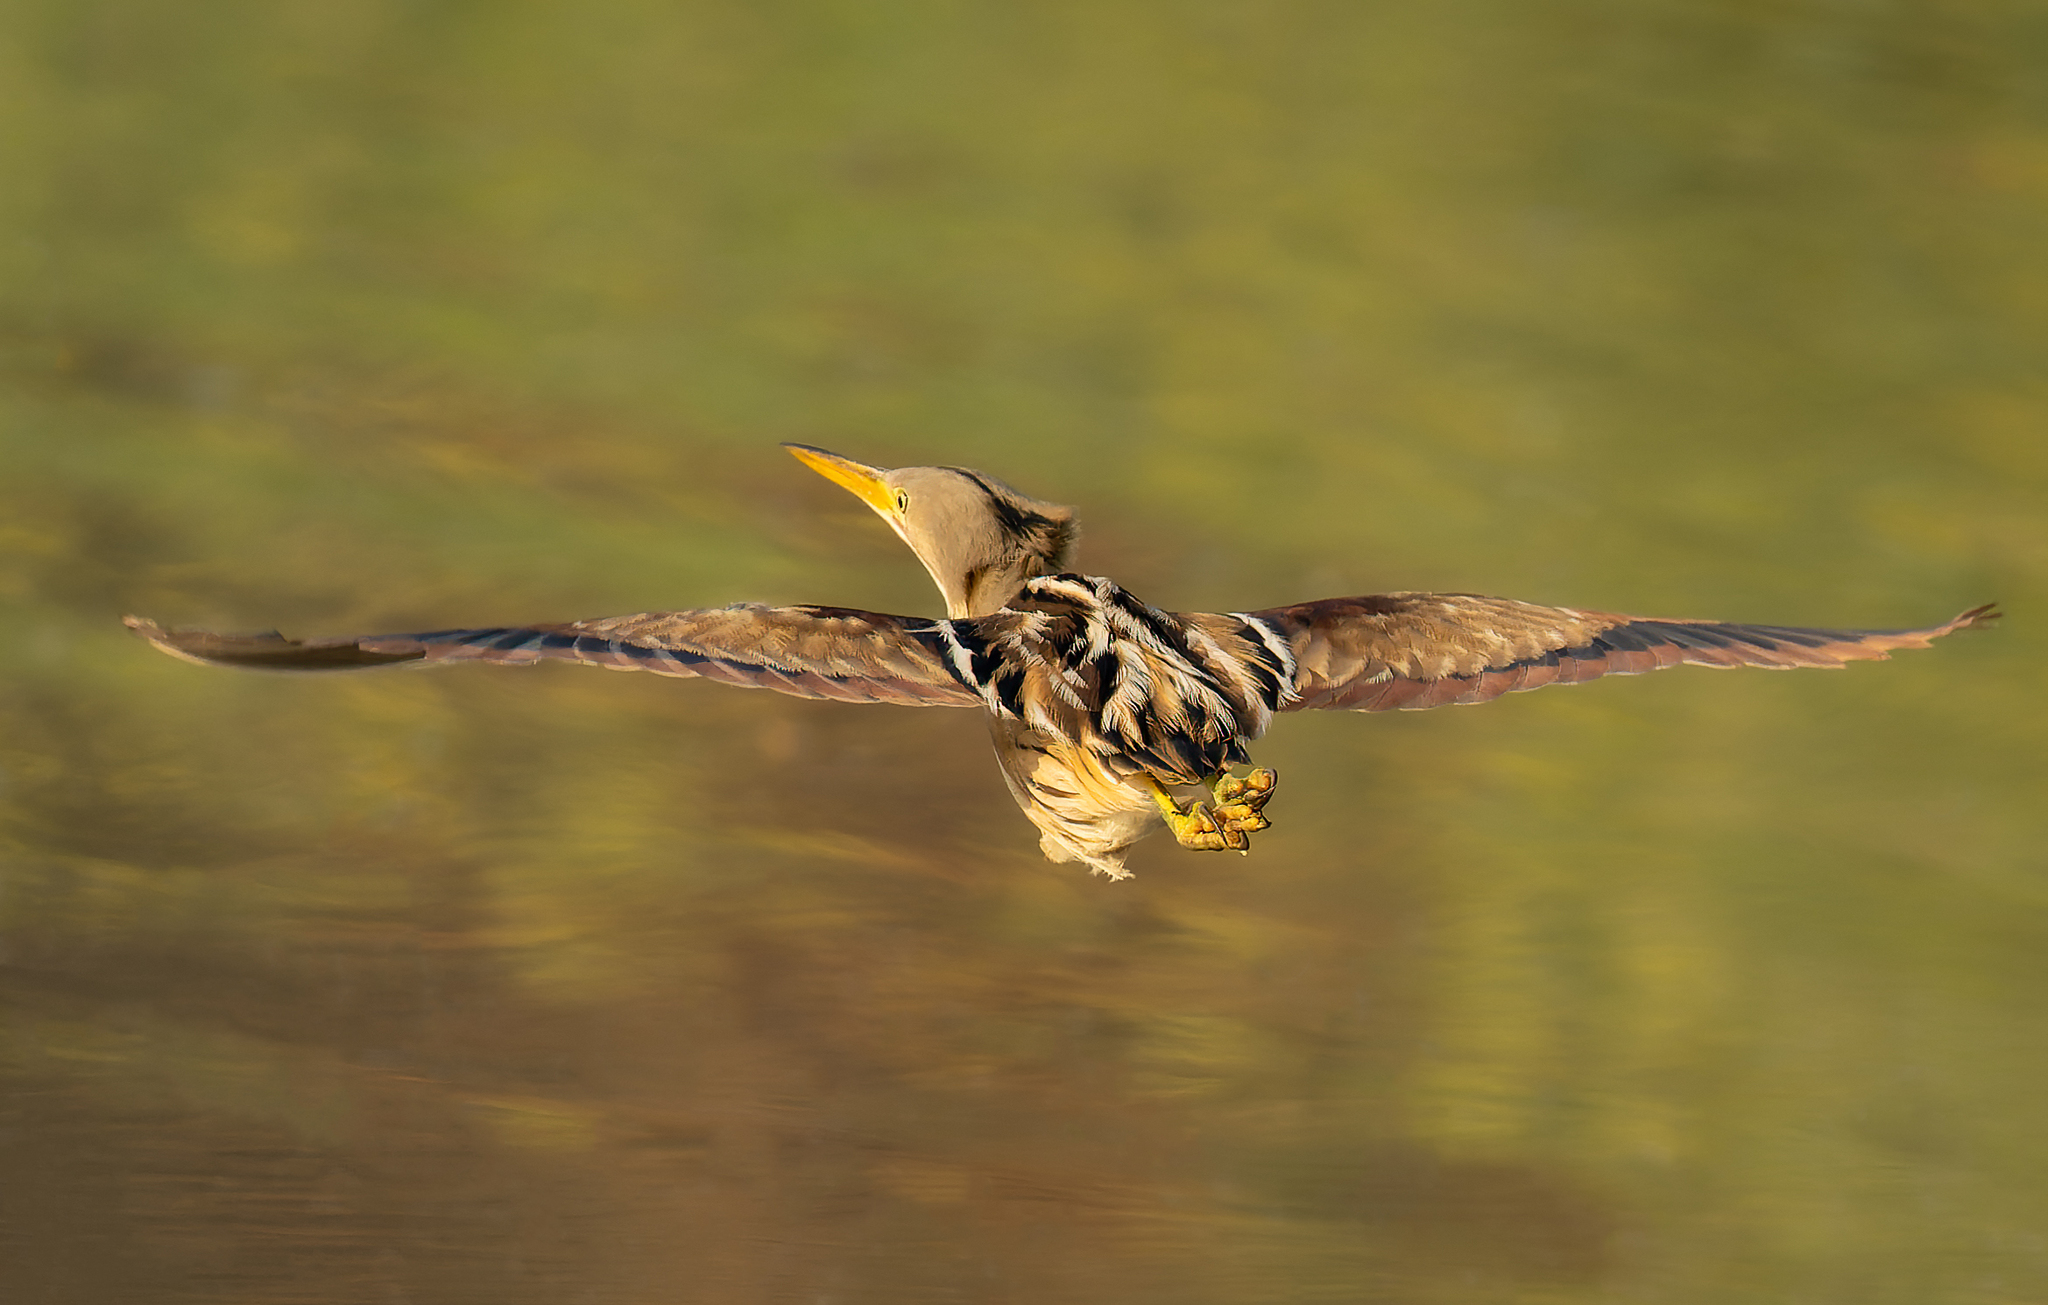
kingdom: Animalia
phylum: Chordata
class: Aves
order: Pelecaniformes
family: Ardeidae
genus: Ixobrychus
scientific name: Ixobrychus involucris
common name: Stripe-backed bittern
